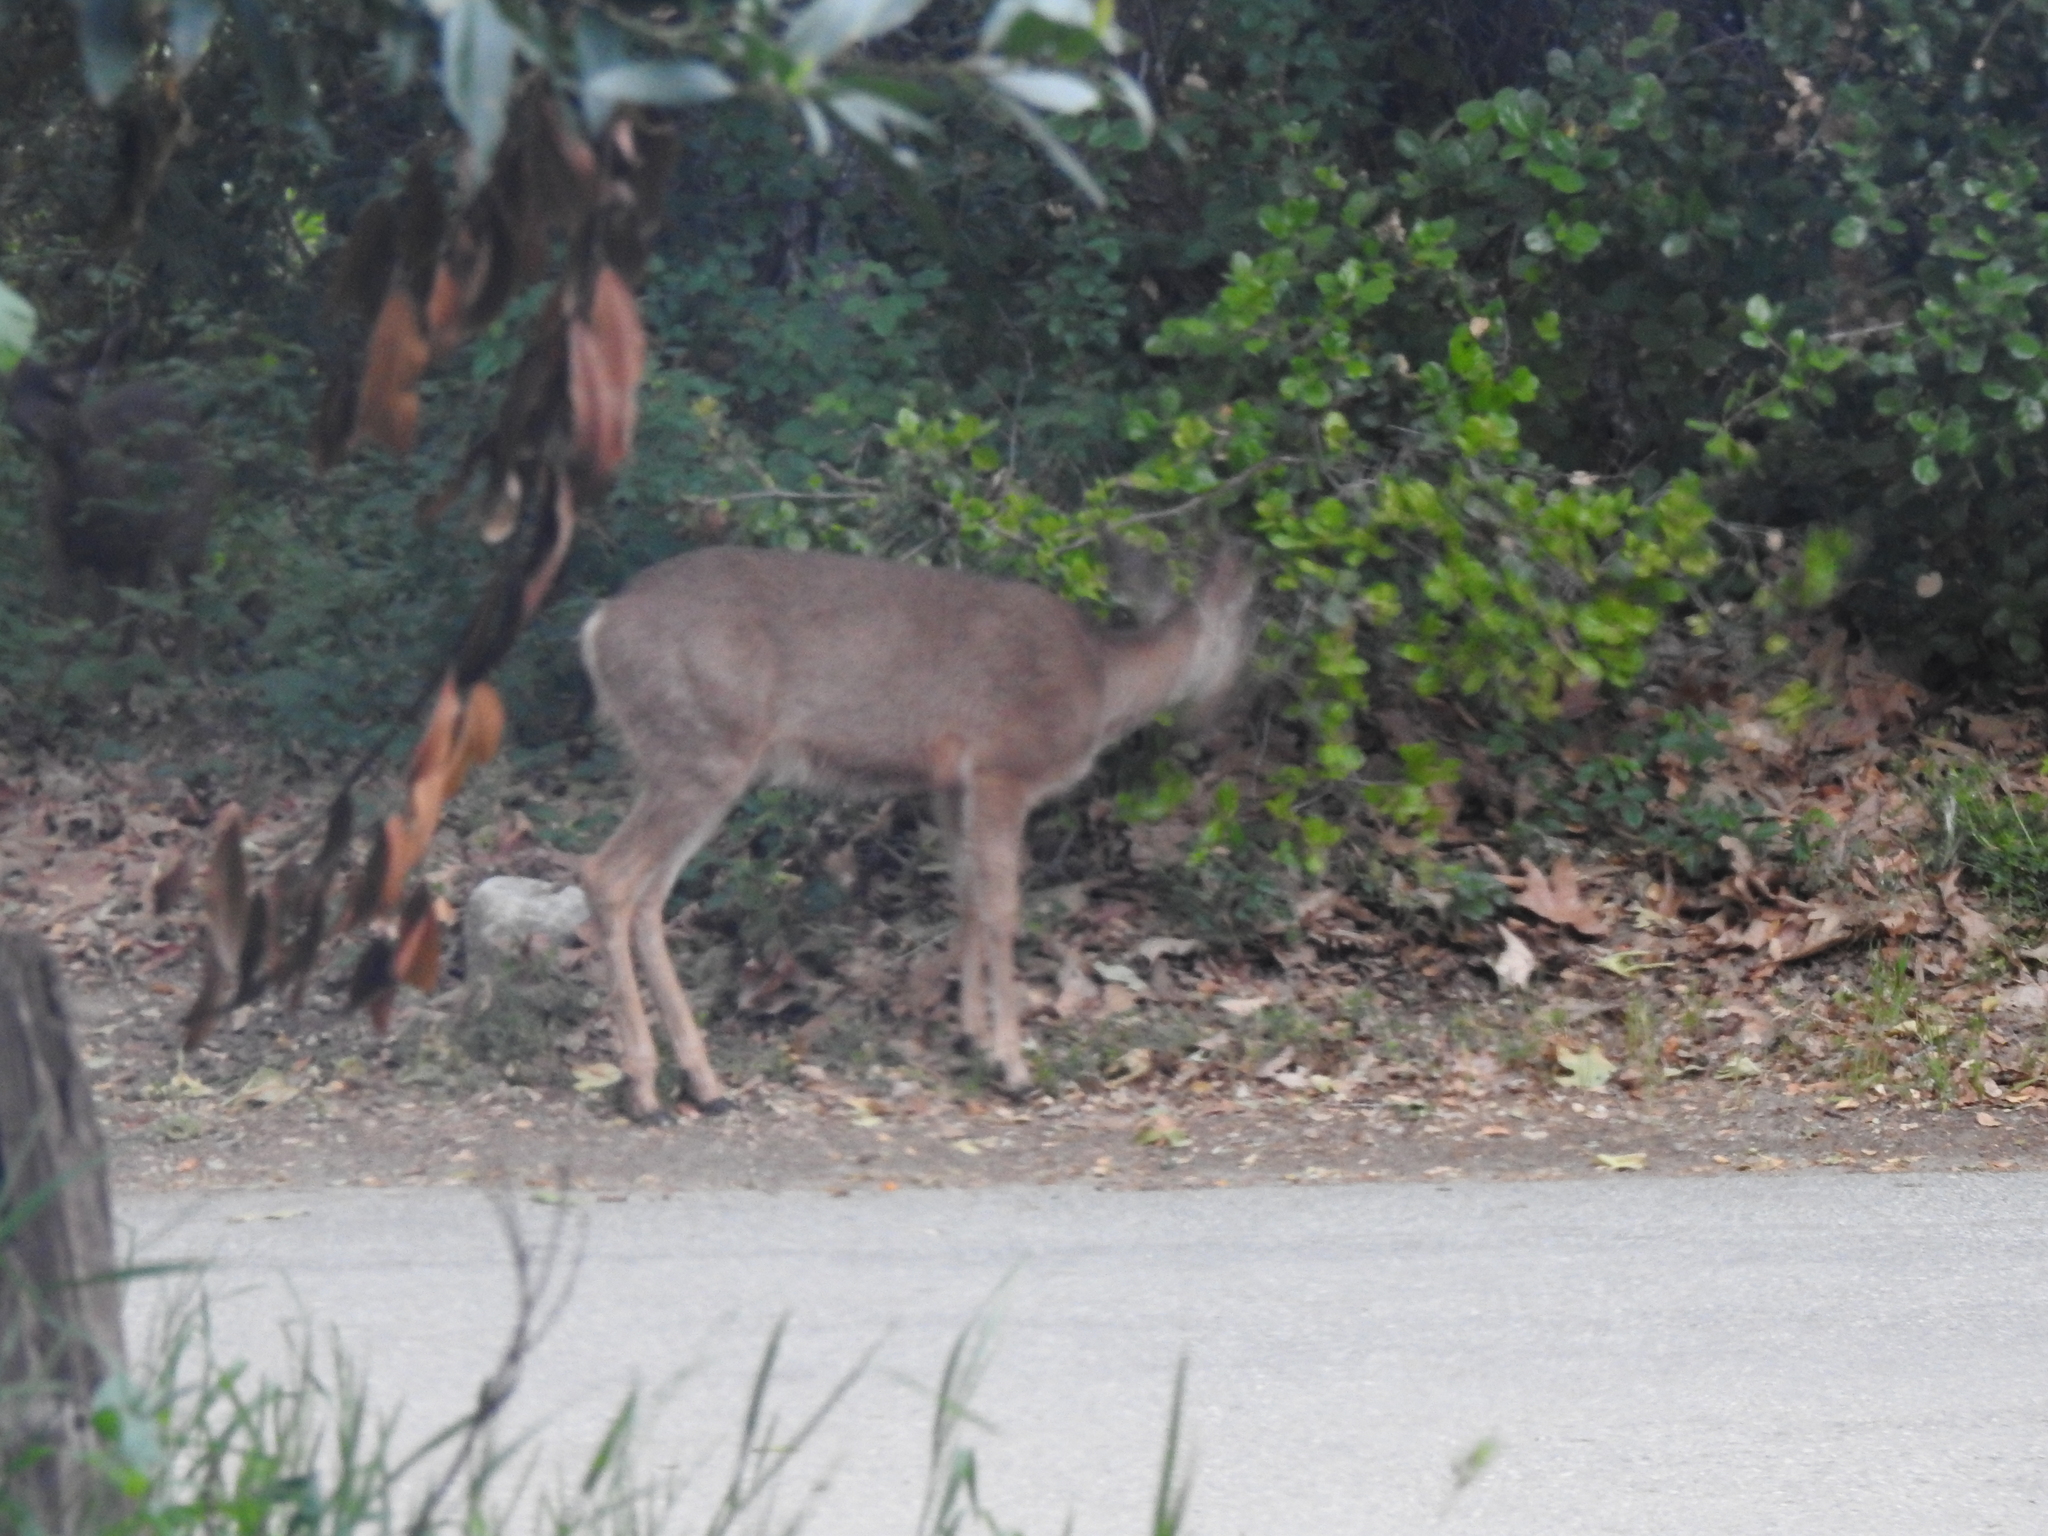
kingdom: Animalia
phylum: Chordata
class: Mammalia
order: Artiodactyla
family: Cervidae
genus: Odocoileus
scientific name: Odocoileus hemionus
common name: Mule deer
